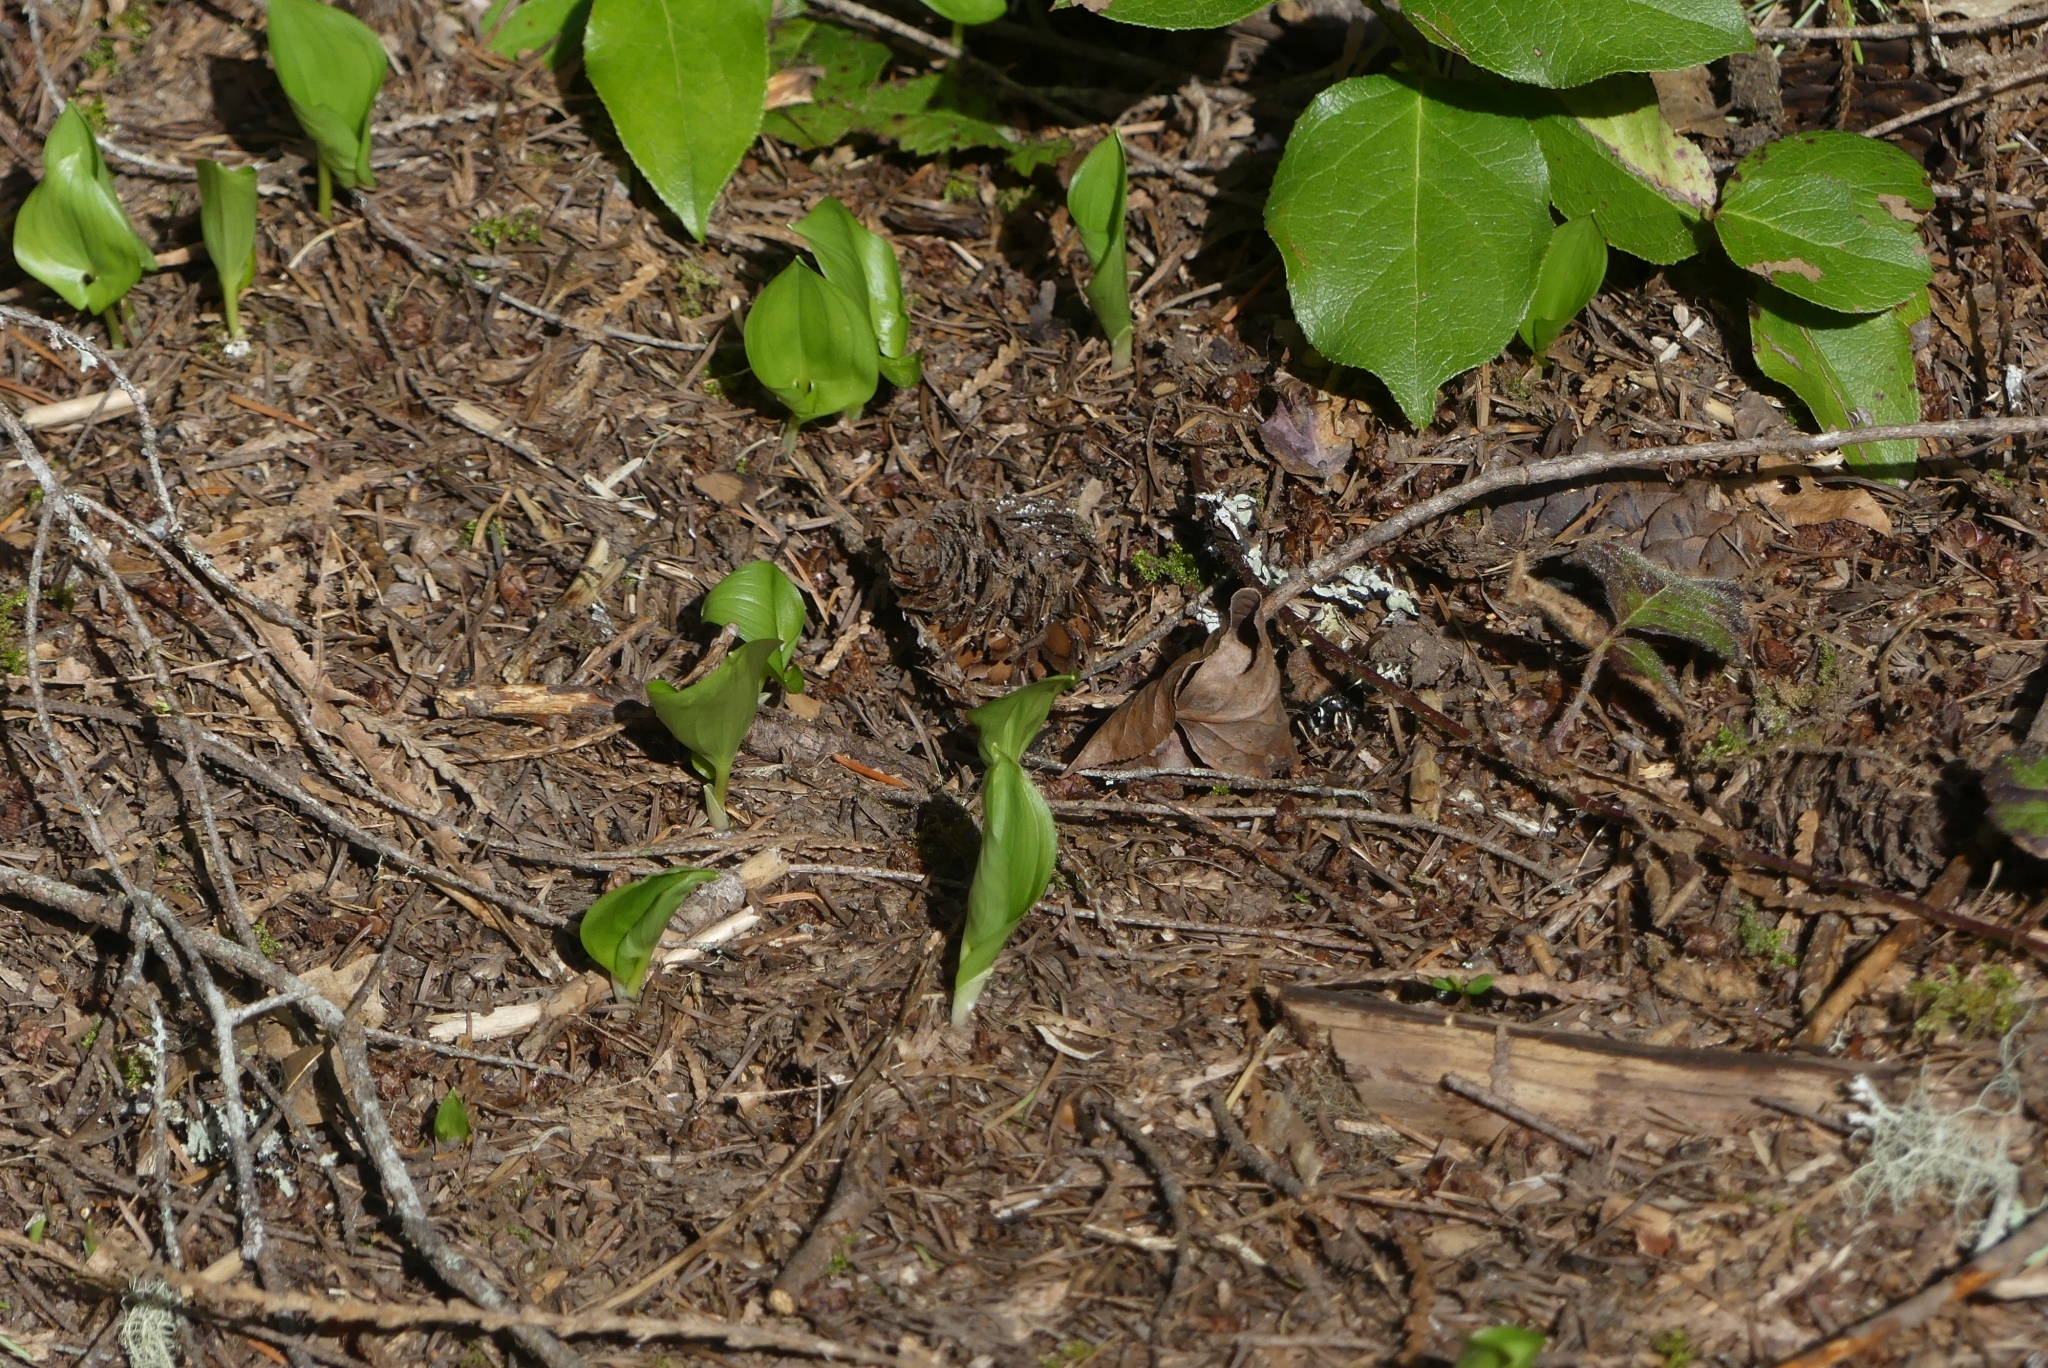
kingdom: Plantae
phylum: Tracheophyta
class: Liliopsida
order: Asparagales
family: Asparagaceae
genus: Maianthemum
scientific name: Maianthemum dilatatum
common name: False lily-of-the-valley
